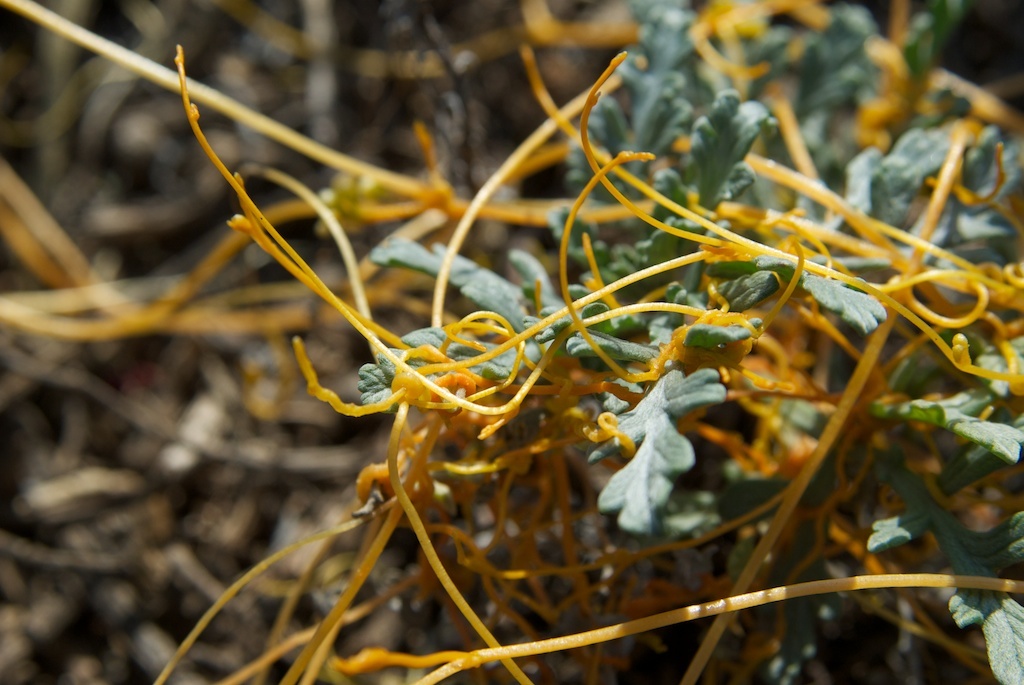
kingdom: Plantae
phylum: Tracheophyta
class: Magnoliopsida
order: Asterales
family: Asteraceae
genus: Ambrosia
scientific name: Ambrosia chamissonis
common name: Beachbur
